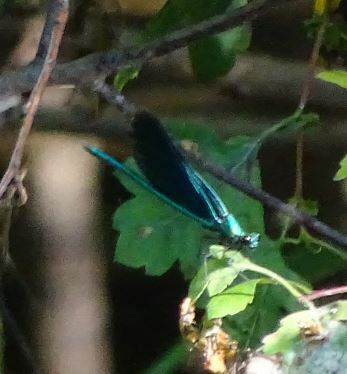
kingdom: Animalia
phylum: Arthropoda
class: Insecta
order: Odonata
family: Calopterygidae
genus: Calopteryx
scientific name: Calopteryx virgo
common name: Beautiful demoiselle
